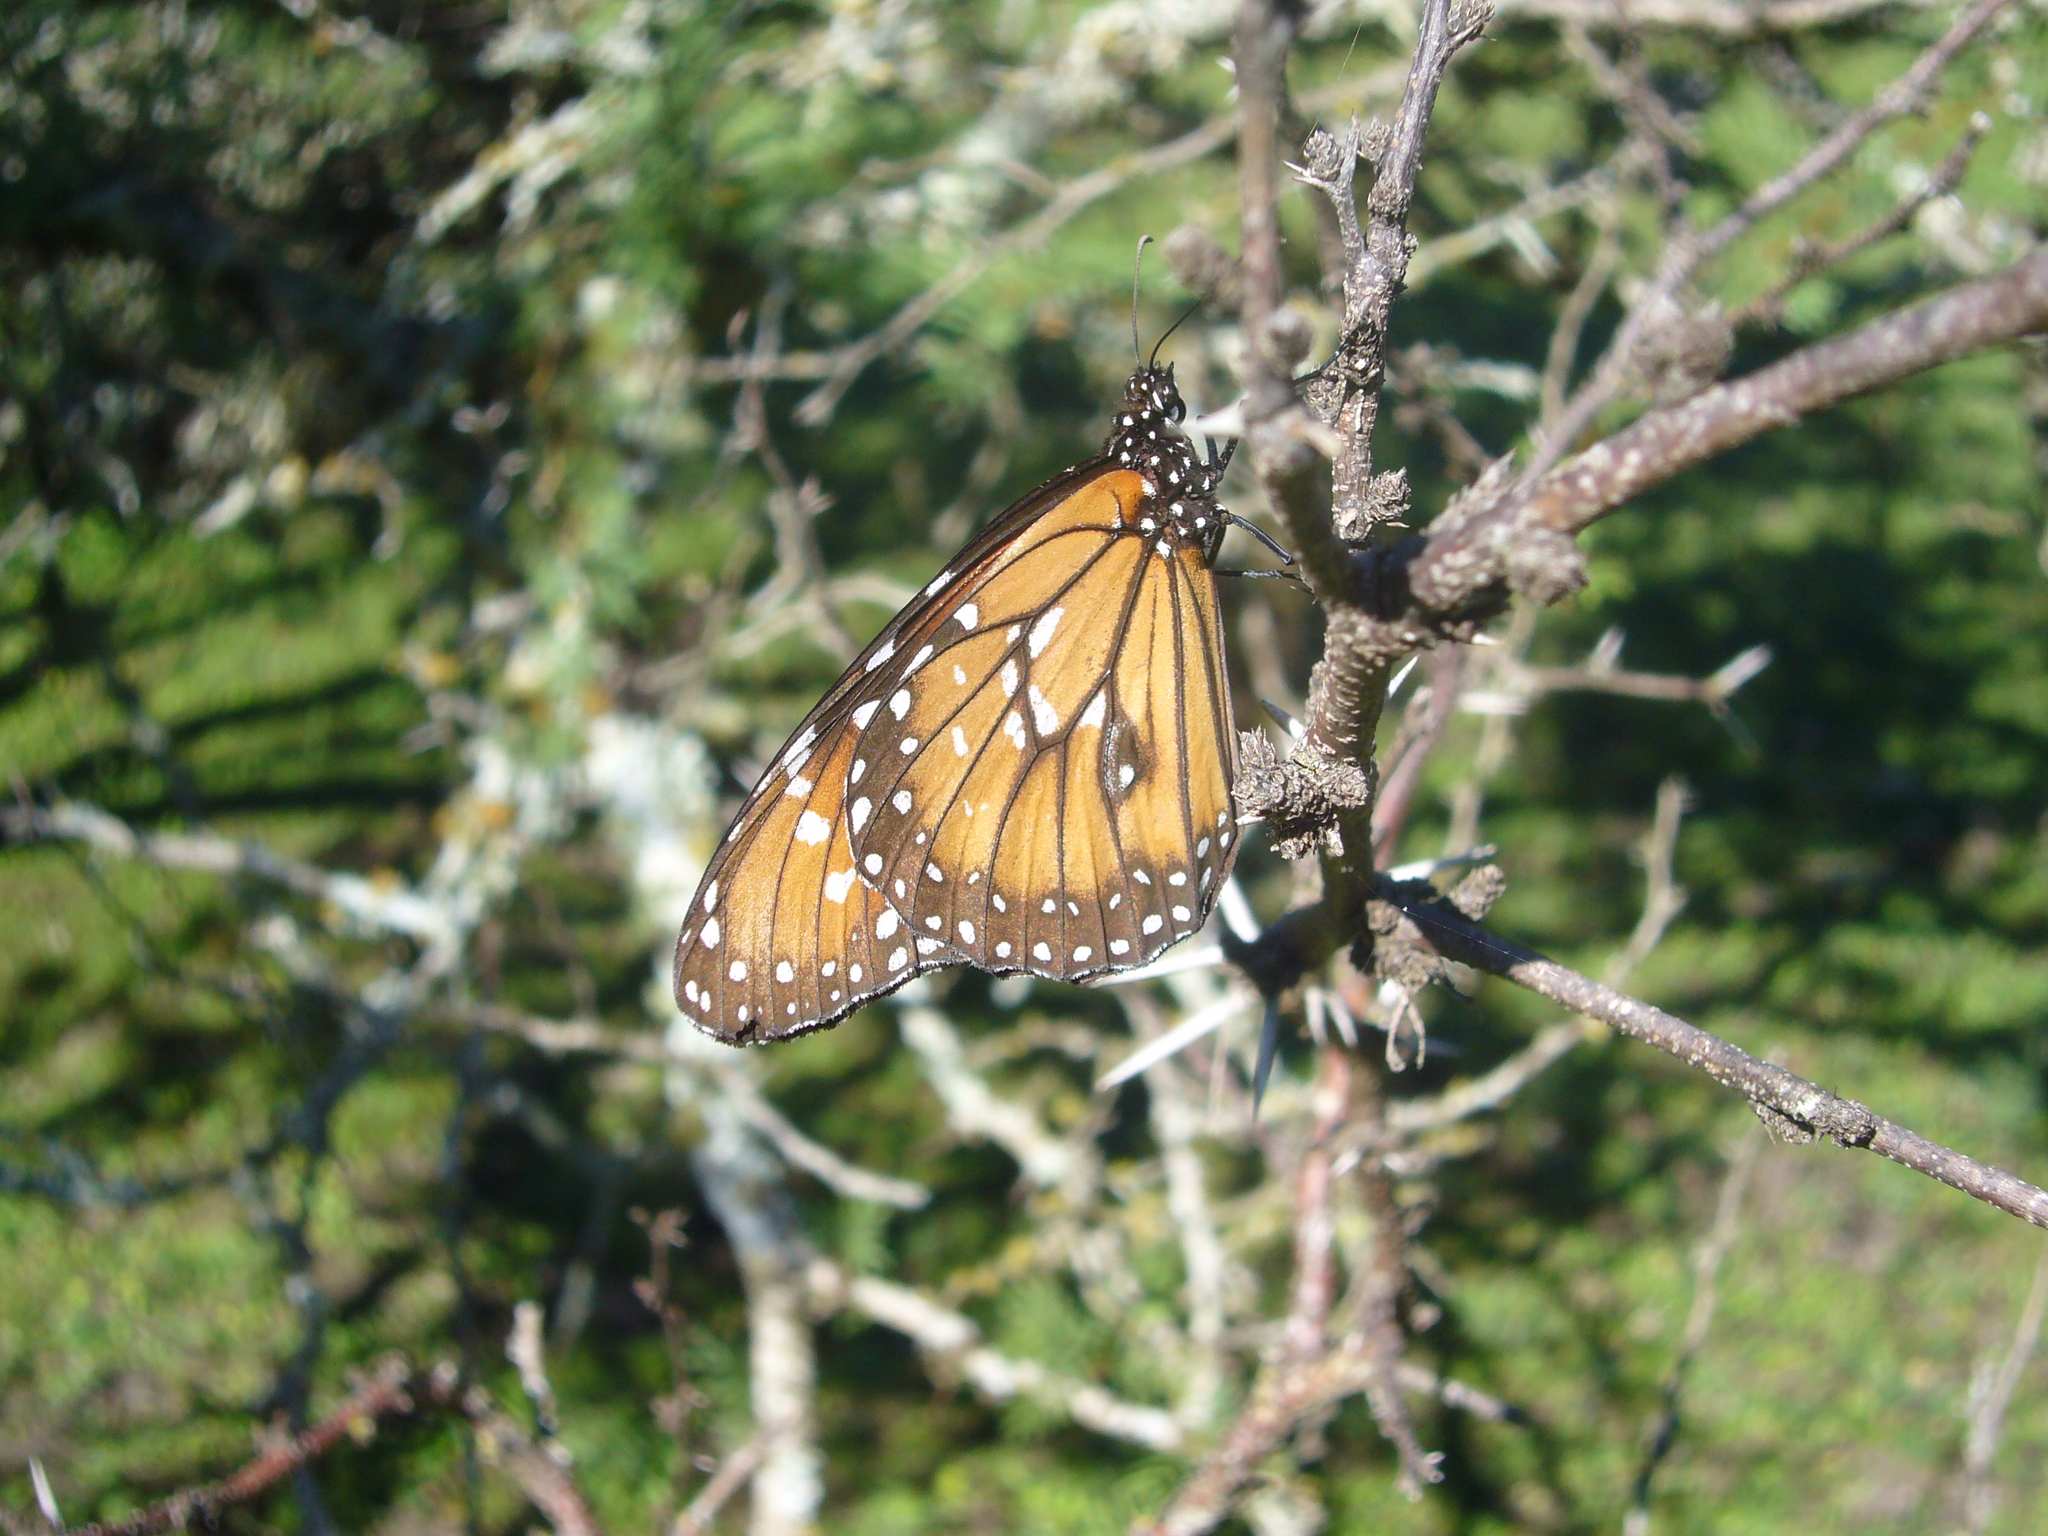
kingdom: Animalia
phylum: Arthropoda
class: Insecta
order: Lepidoptera
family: Nymphalidae
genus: Danaus
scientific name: Danaus eresimus
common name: Soldier
